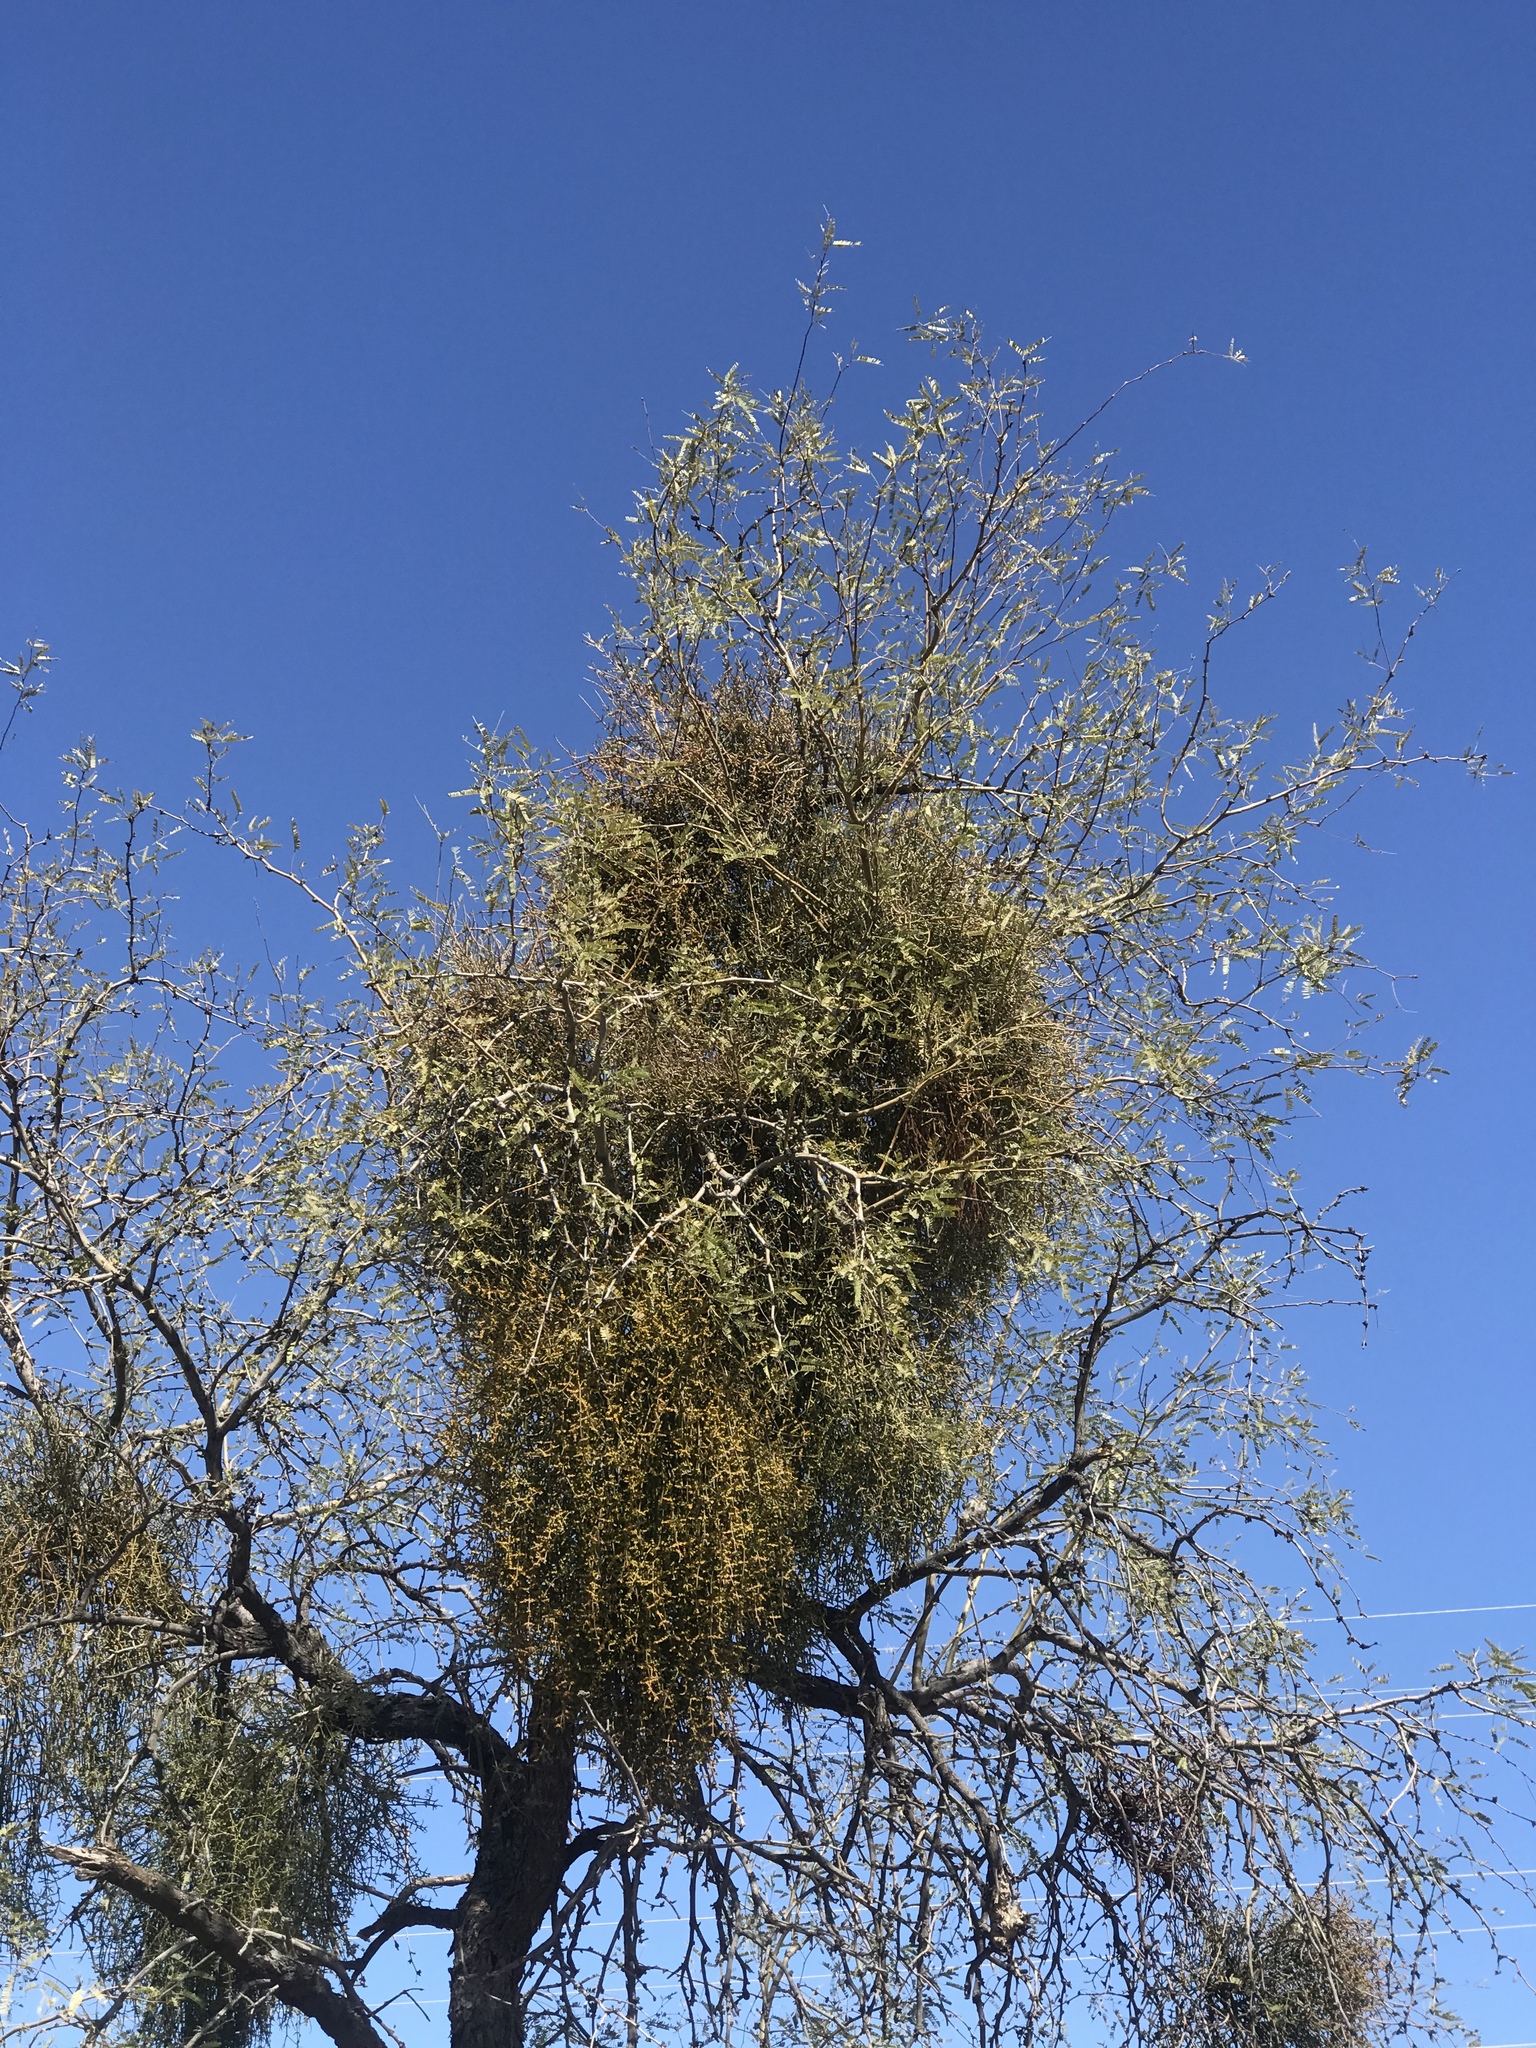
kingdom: Plantae
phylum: Tracheophyta
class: Magnoliopsida
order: Santalales
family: Viscaceae
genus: Phoradendron
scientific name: Phoradendron californicum
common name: Acacia mistletoe
